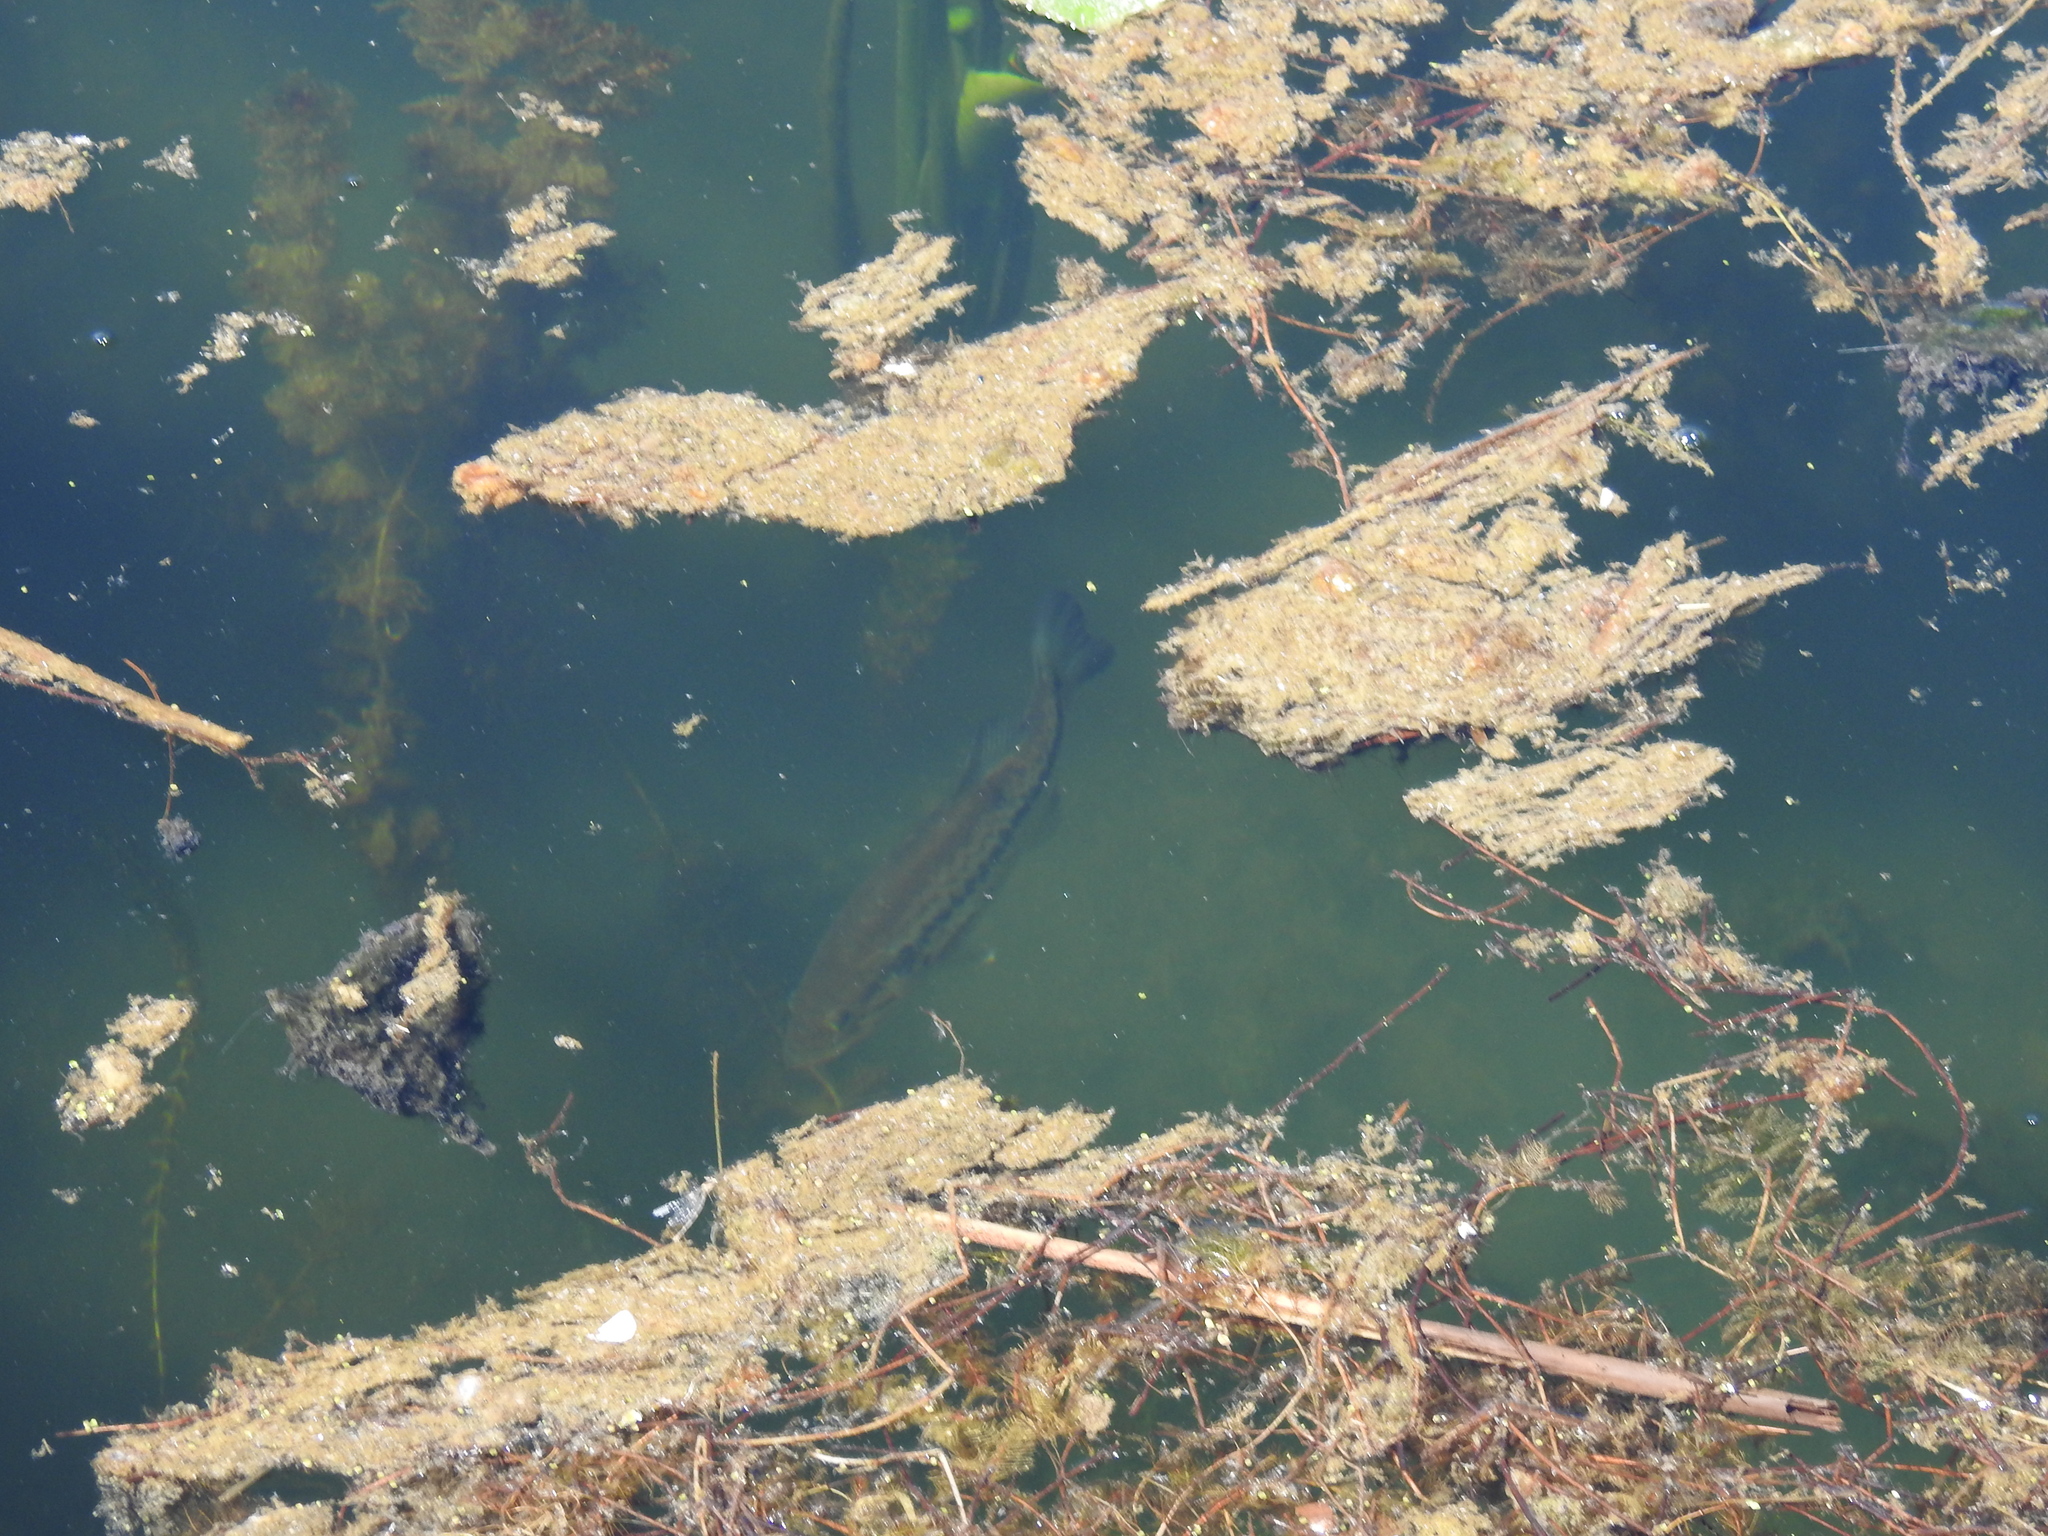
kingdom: Animalia
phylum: Chordata
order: Perciformes
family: Centrarchidae
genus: Micropterus
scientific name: Micropterus
